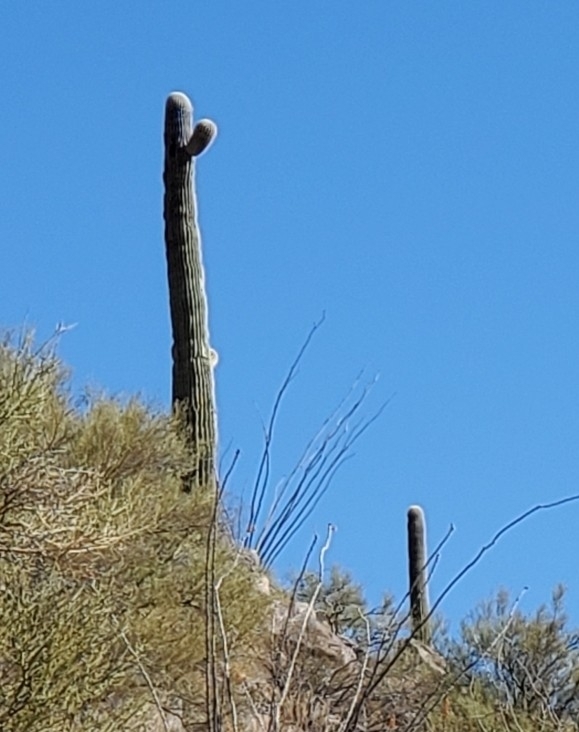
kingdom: Plantae
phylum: Tracheophyta
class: Magnoliopsida
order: Caryophyllales
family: Cactaceae
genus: Carnegiea
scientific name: Carnegiea gigantea
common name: Saguaro
